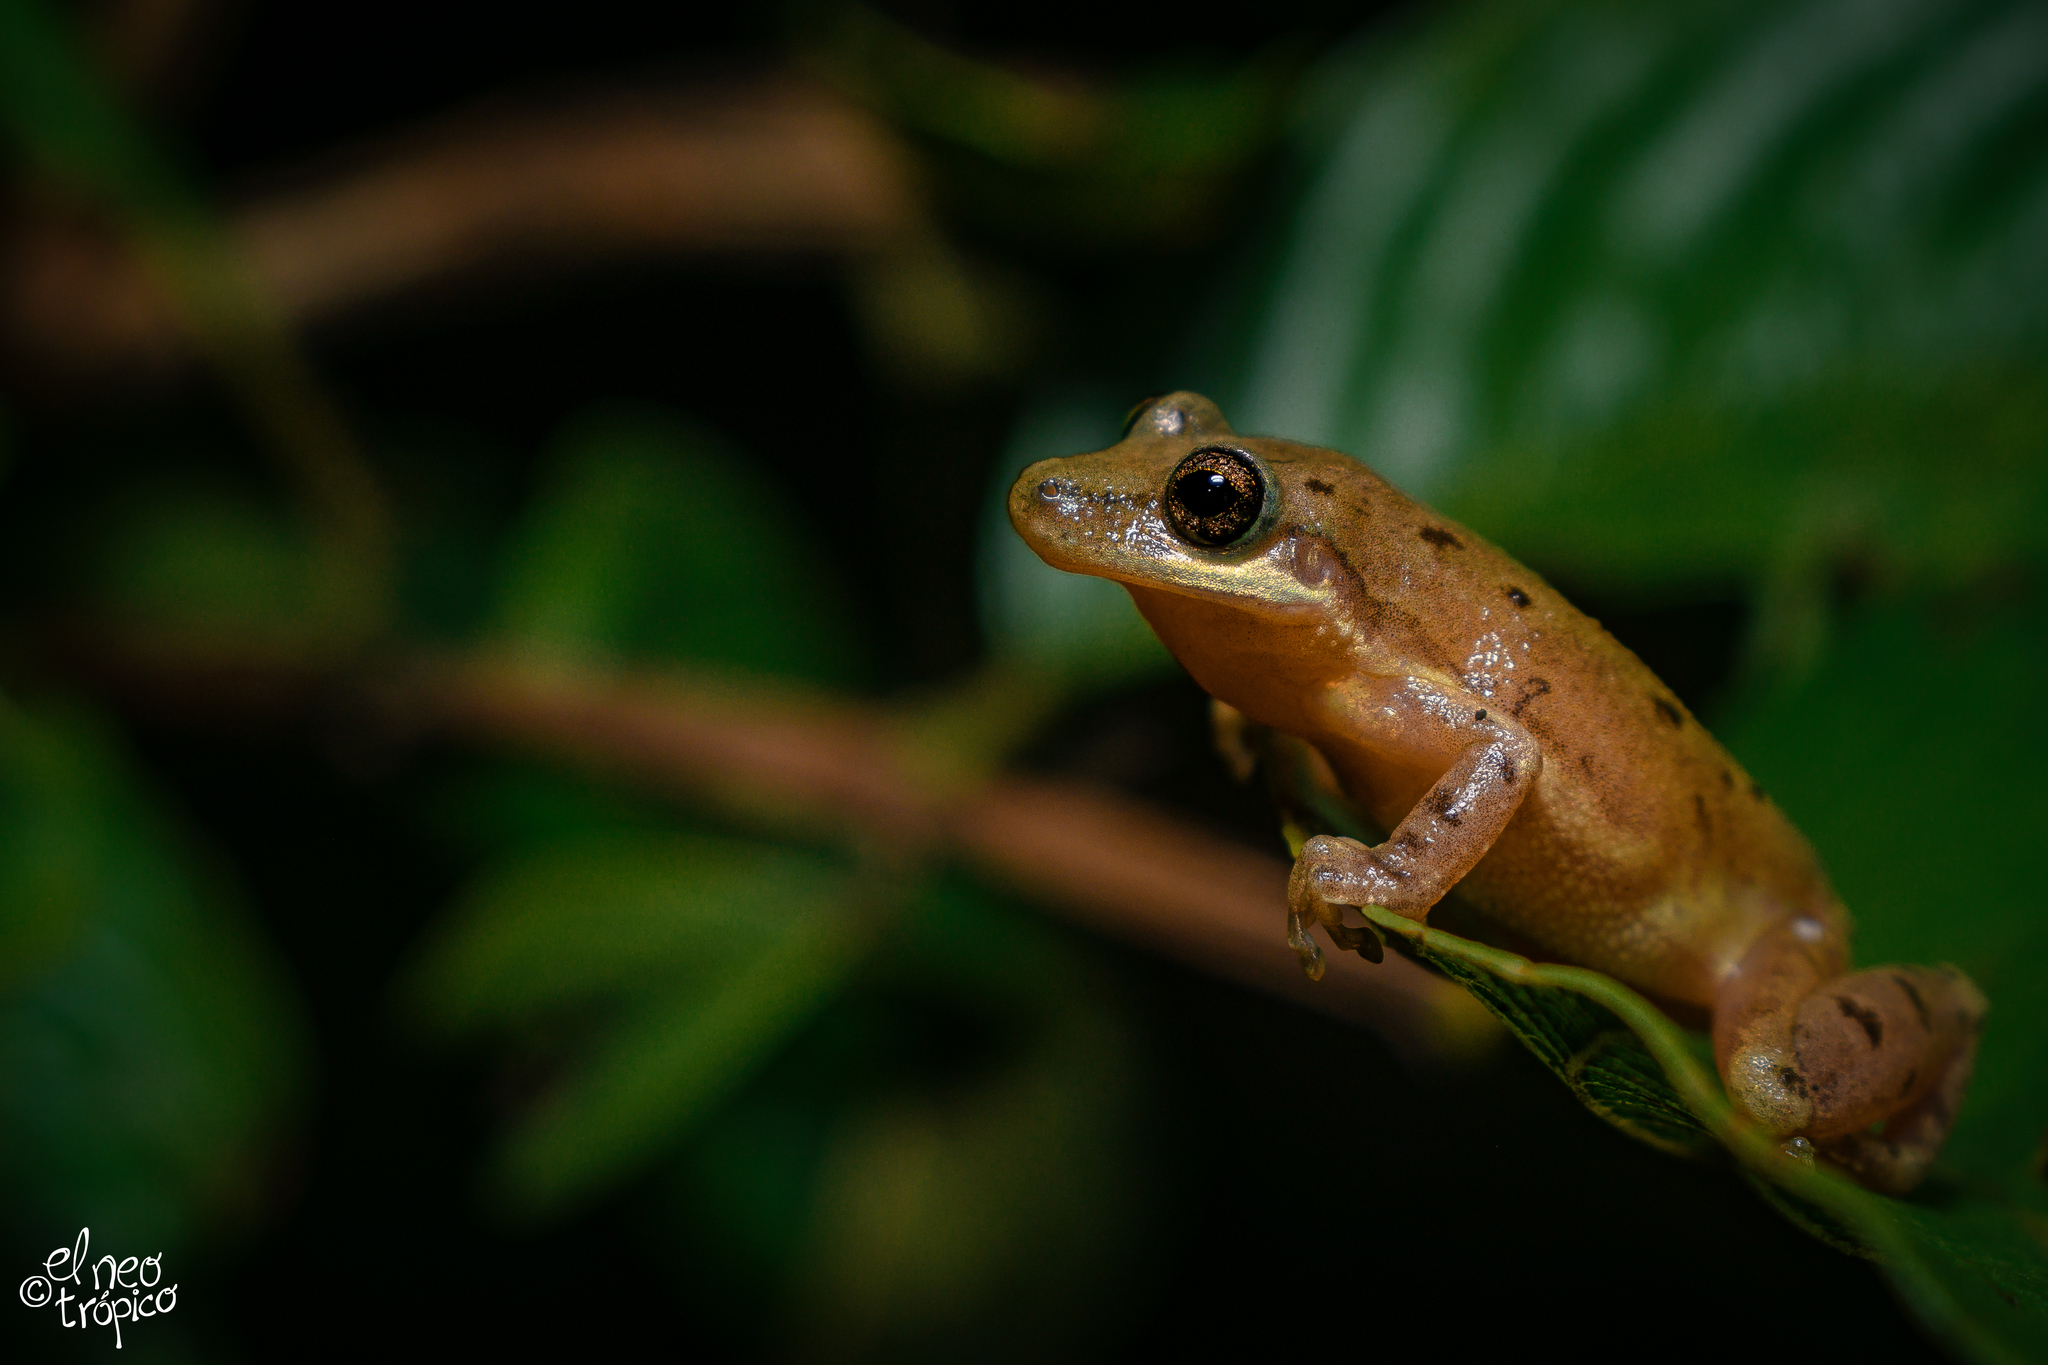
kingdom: Animalia
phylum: Chordata
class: Amphibia
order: Anura
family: Hylidae
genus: Scinax
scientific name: Scinax staufferi
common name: Stauffer's long-nosed treefrog
